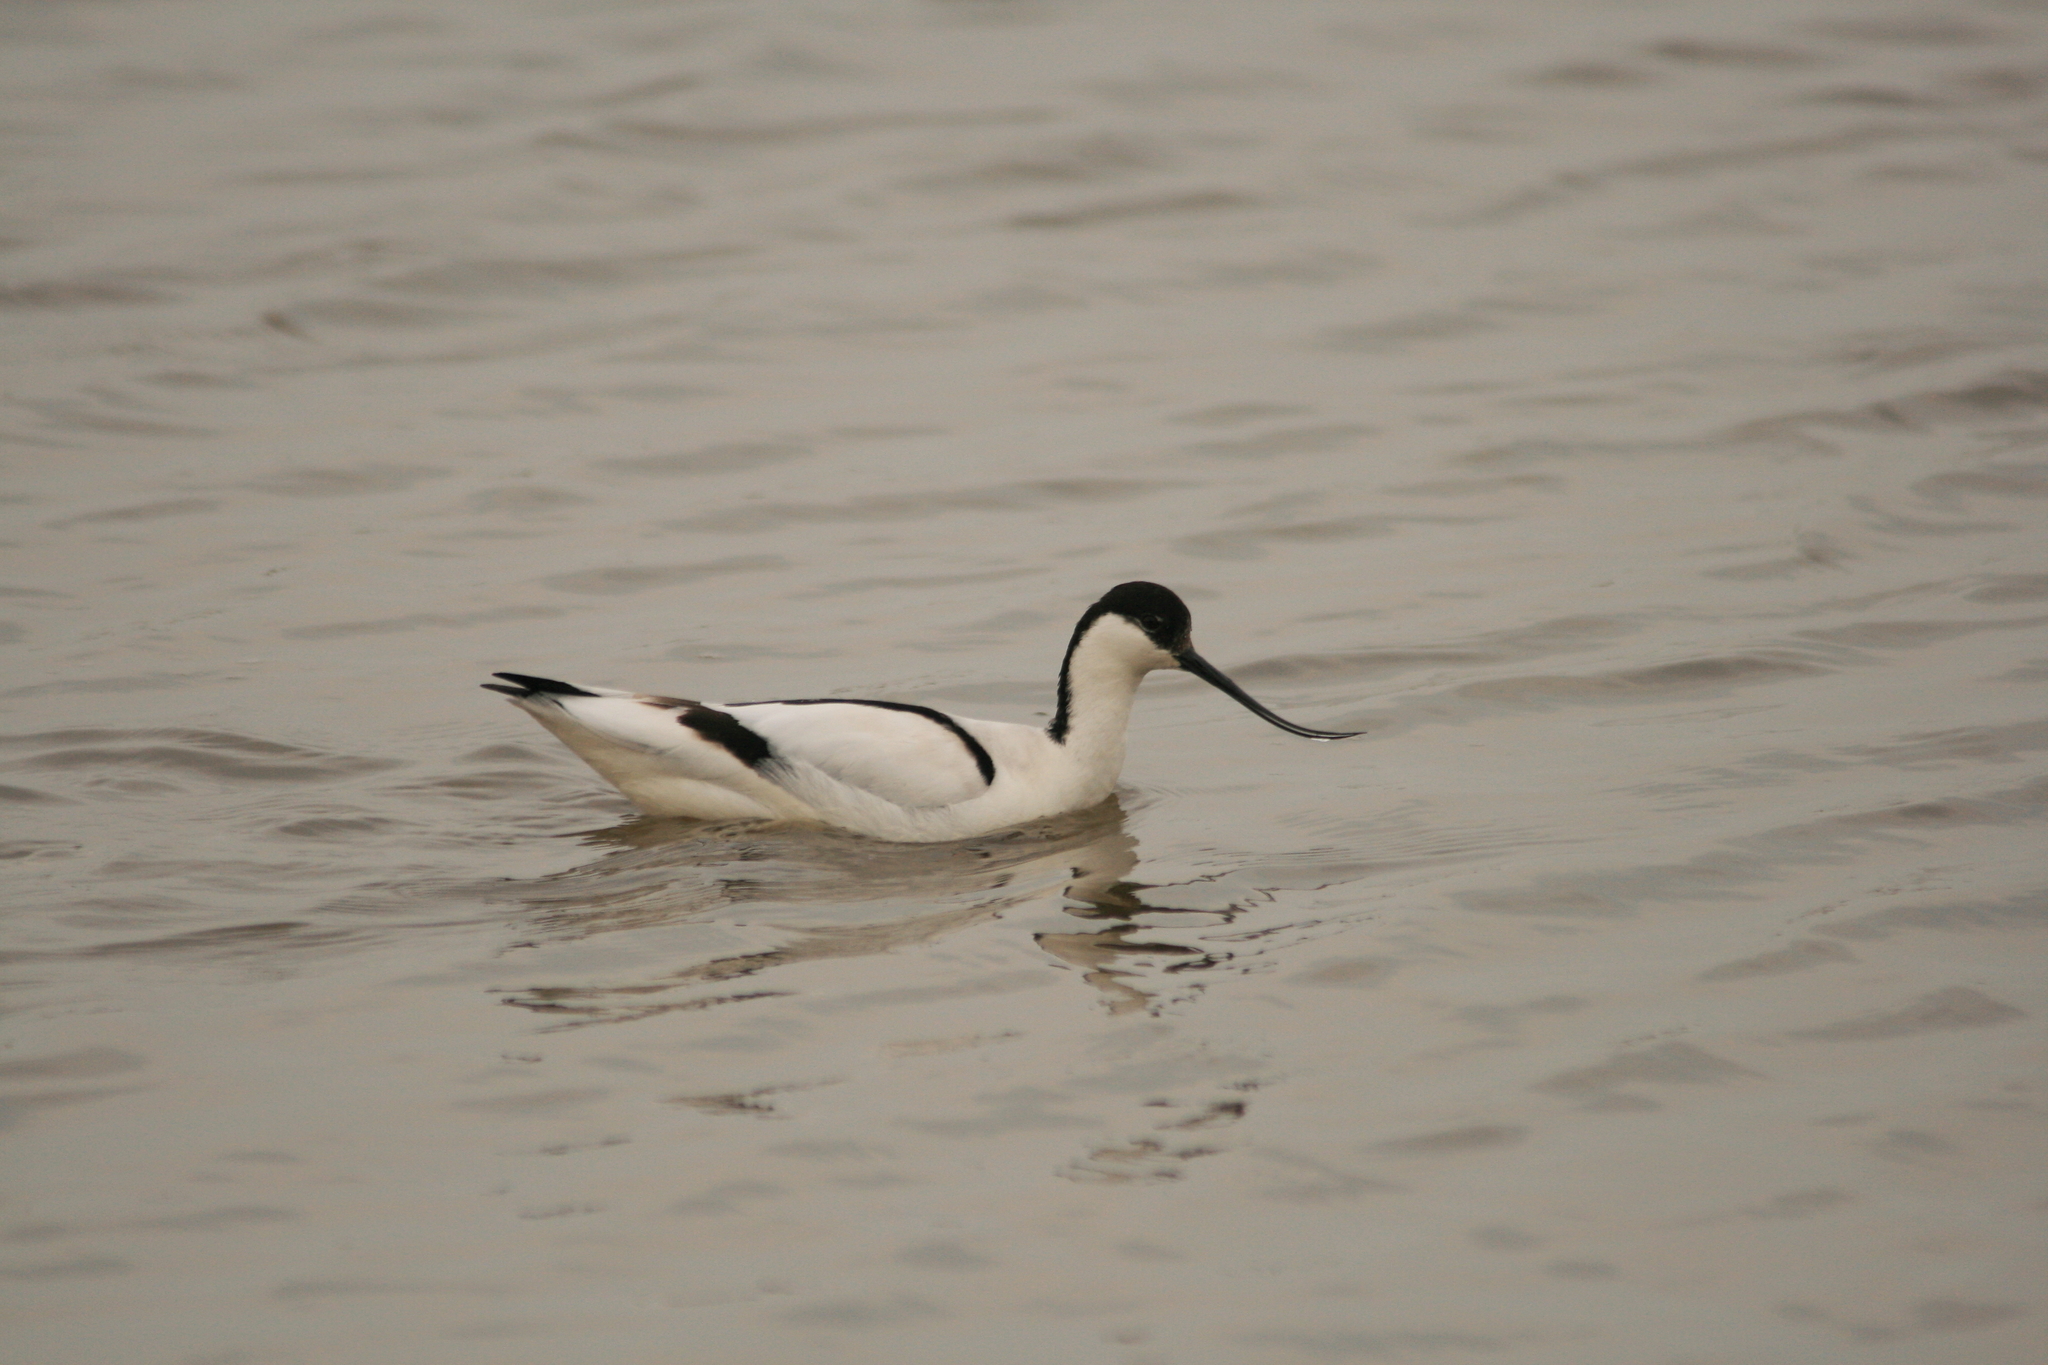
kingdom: Animalia
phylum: Chordata
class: Aves
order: Charadriiformes
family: Recurvirostridae
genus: Recurvirostra
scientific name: Recurvirostra avosetta
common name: Pied avocet
